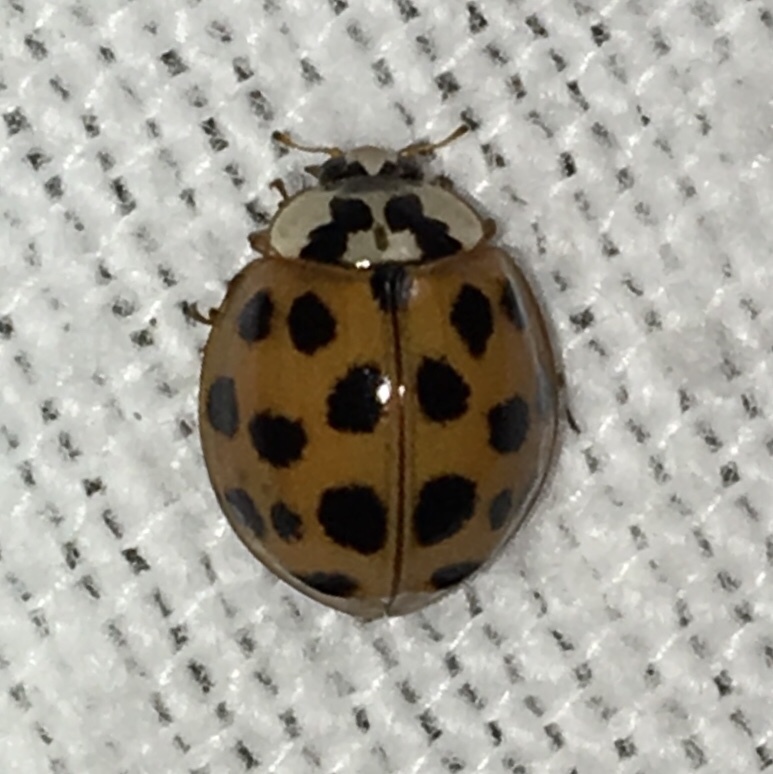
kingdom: Animalia
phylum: Arthropoda
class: Insecta
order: Coleoptera
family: Coccinellidae
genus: Harmonia
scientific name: Harmonia axyridis
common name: Harlequin ladybird
